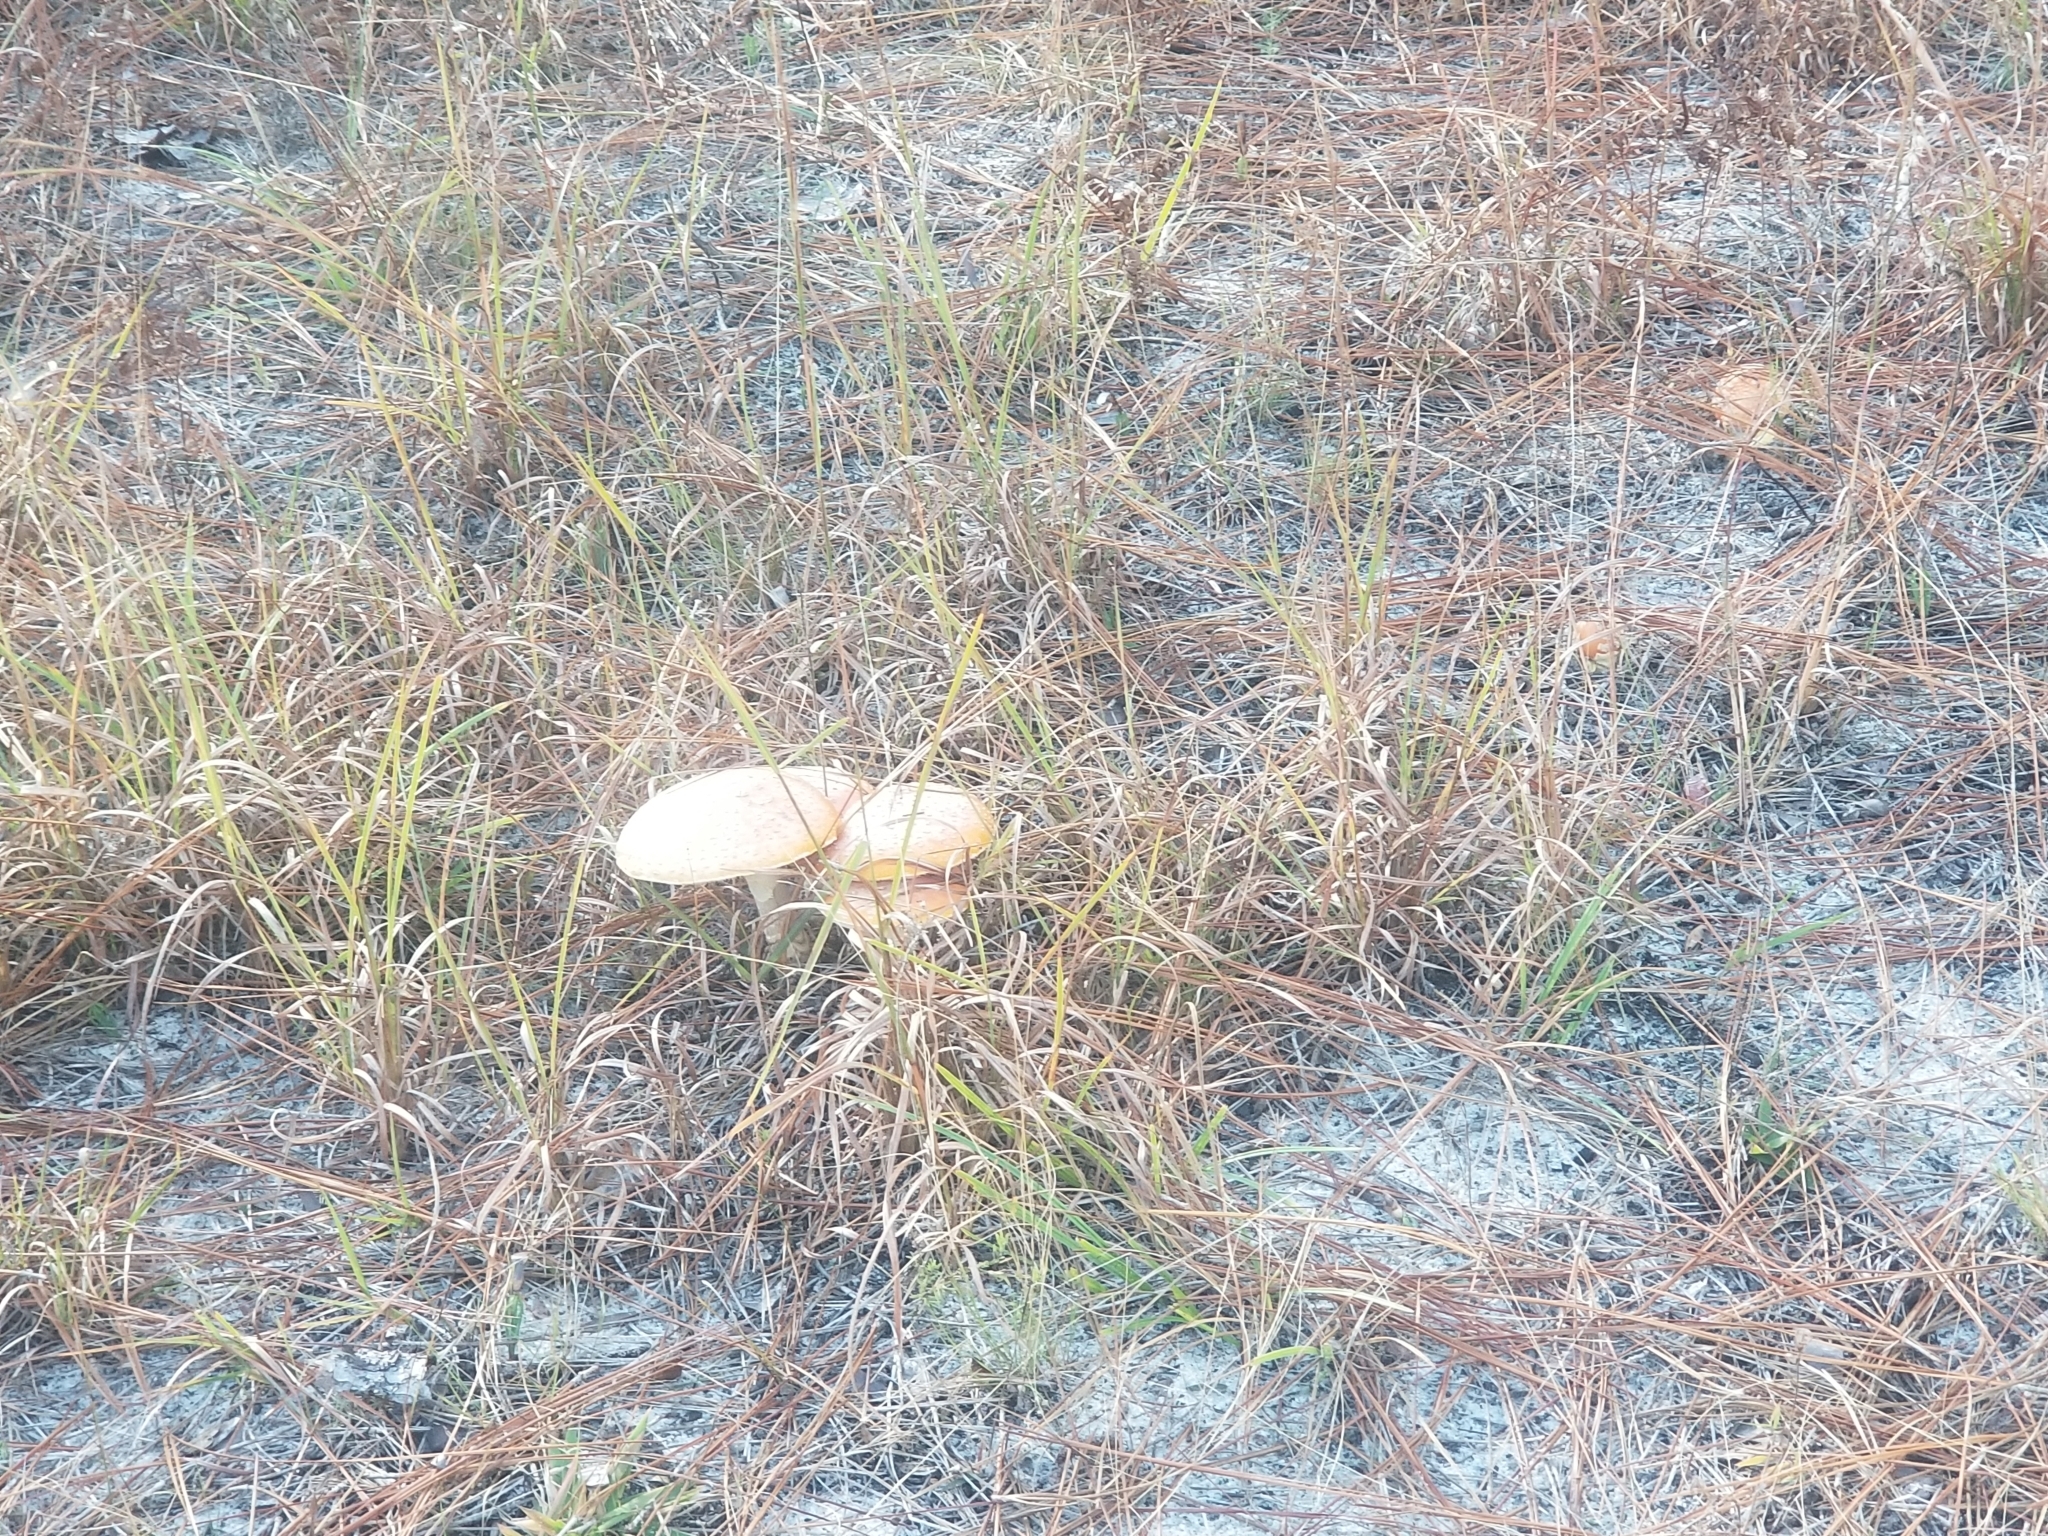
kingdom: Fungi
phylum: Basidiomycota
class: Agaricomycetes
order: Agaricales
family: Amanitaceae
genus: Amanita
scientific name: Amanita persicina
